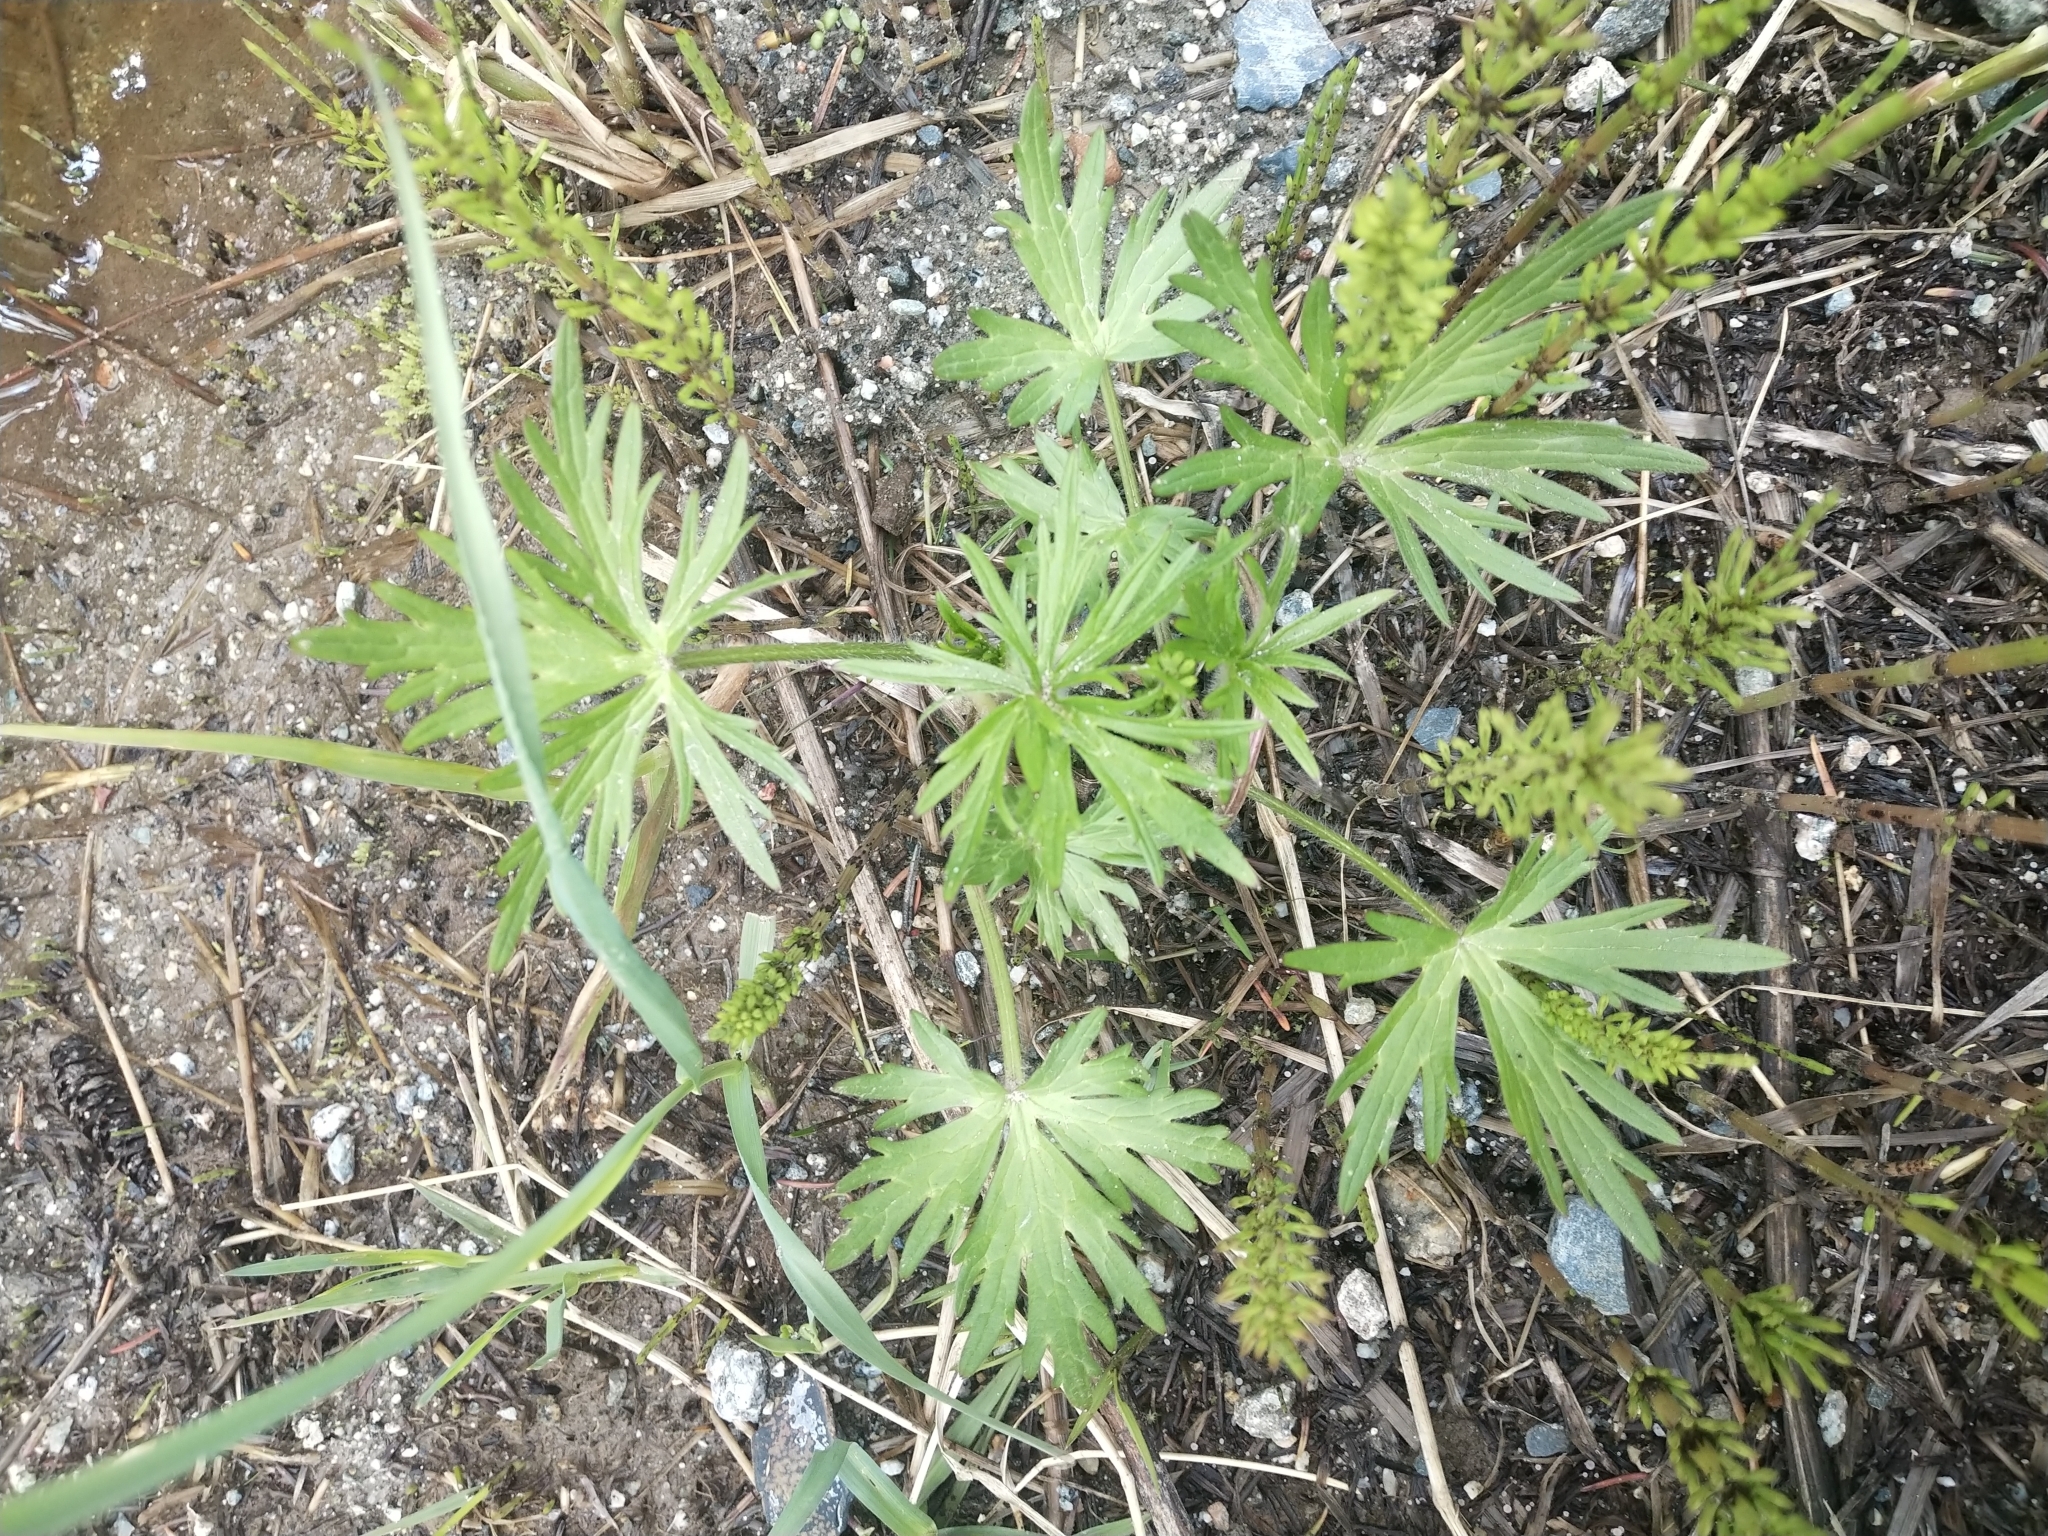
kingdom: Plantae
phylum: Tracheophyta
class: Magnoliopsida
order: Ranunculales
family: Ranunculaceae
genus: Ranunculus
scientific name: Ranunculus acris
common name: Meadow buttercup
